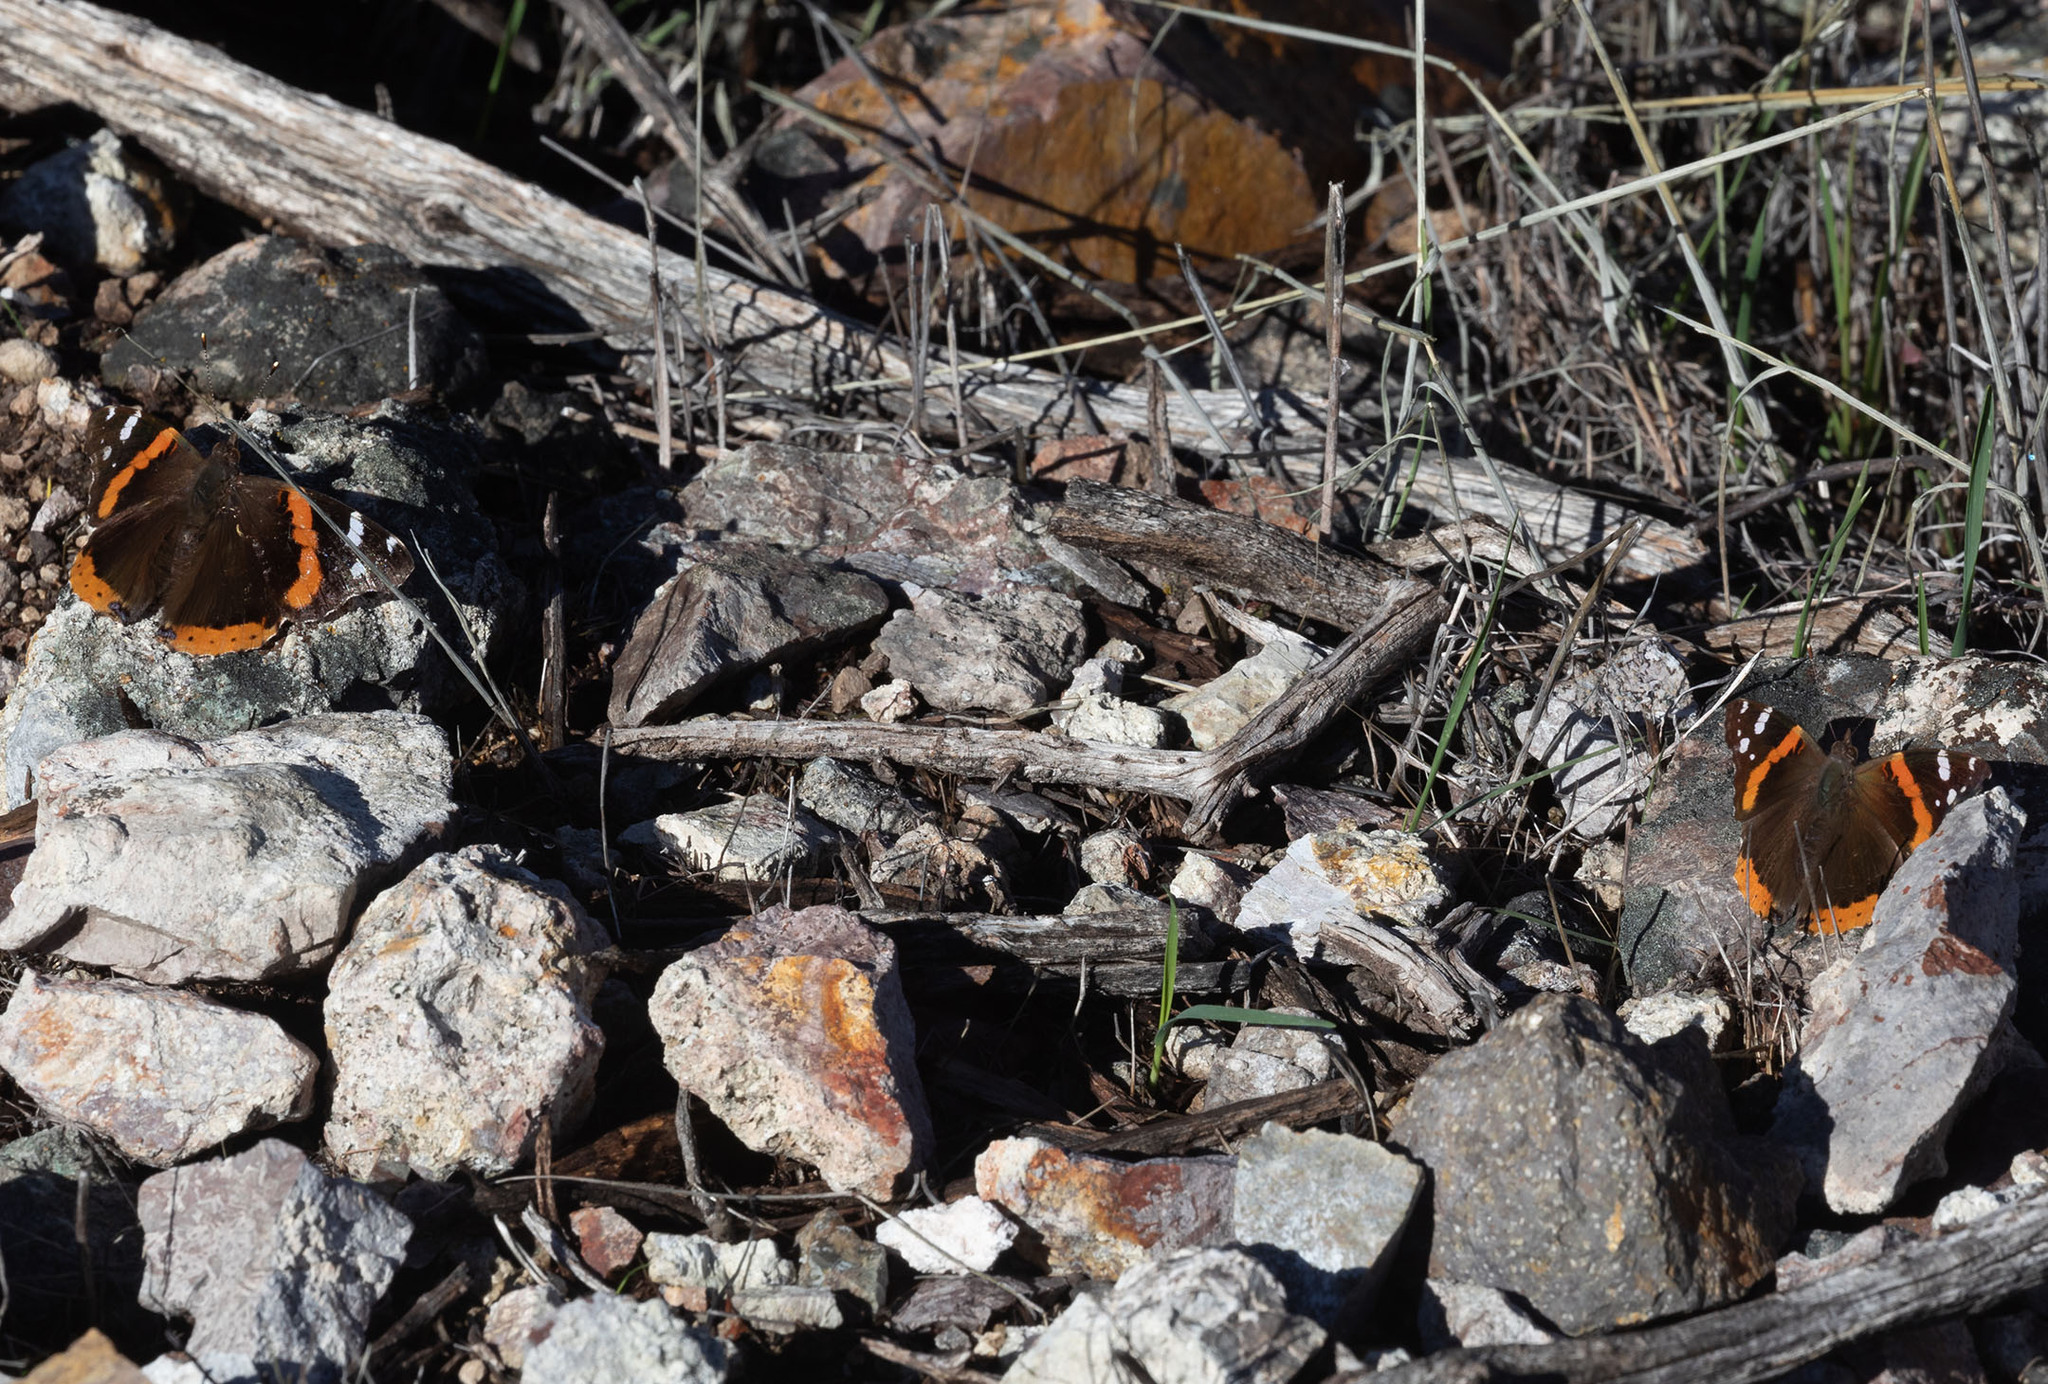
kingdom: Animalia
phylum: Arthropoda
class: Insecta
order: Lepidoptera
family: Nymphalidae
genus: Vanessa
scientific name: Vanessa atalanta
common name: Red admiral
